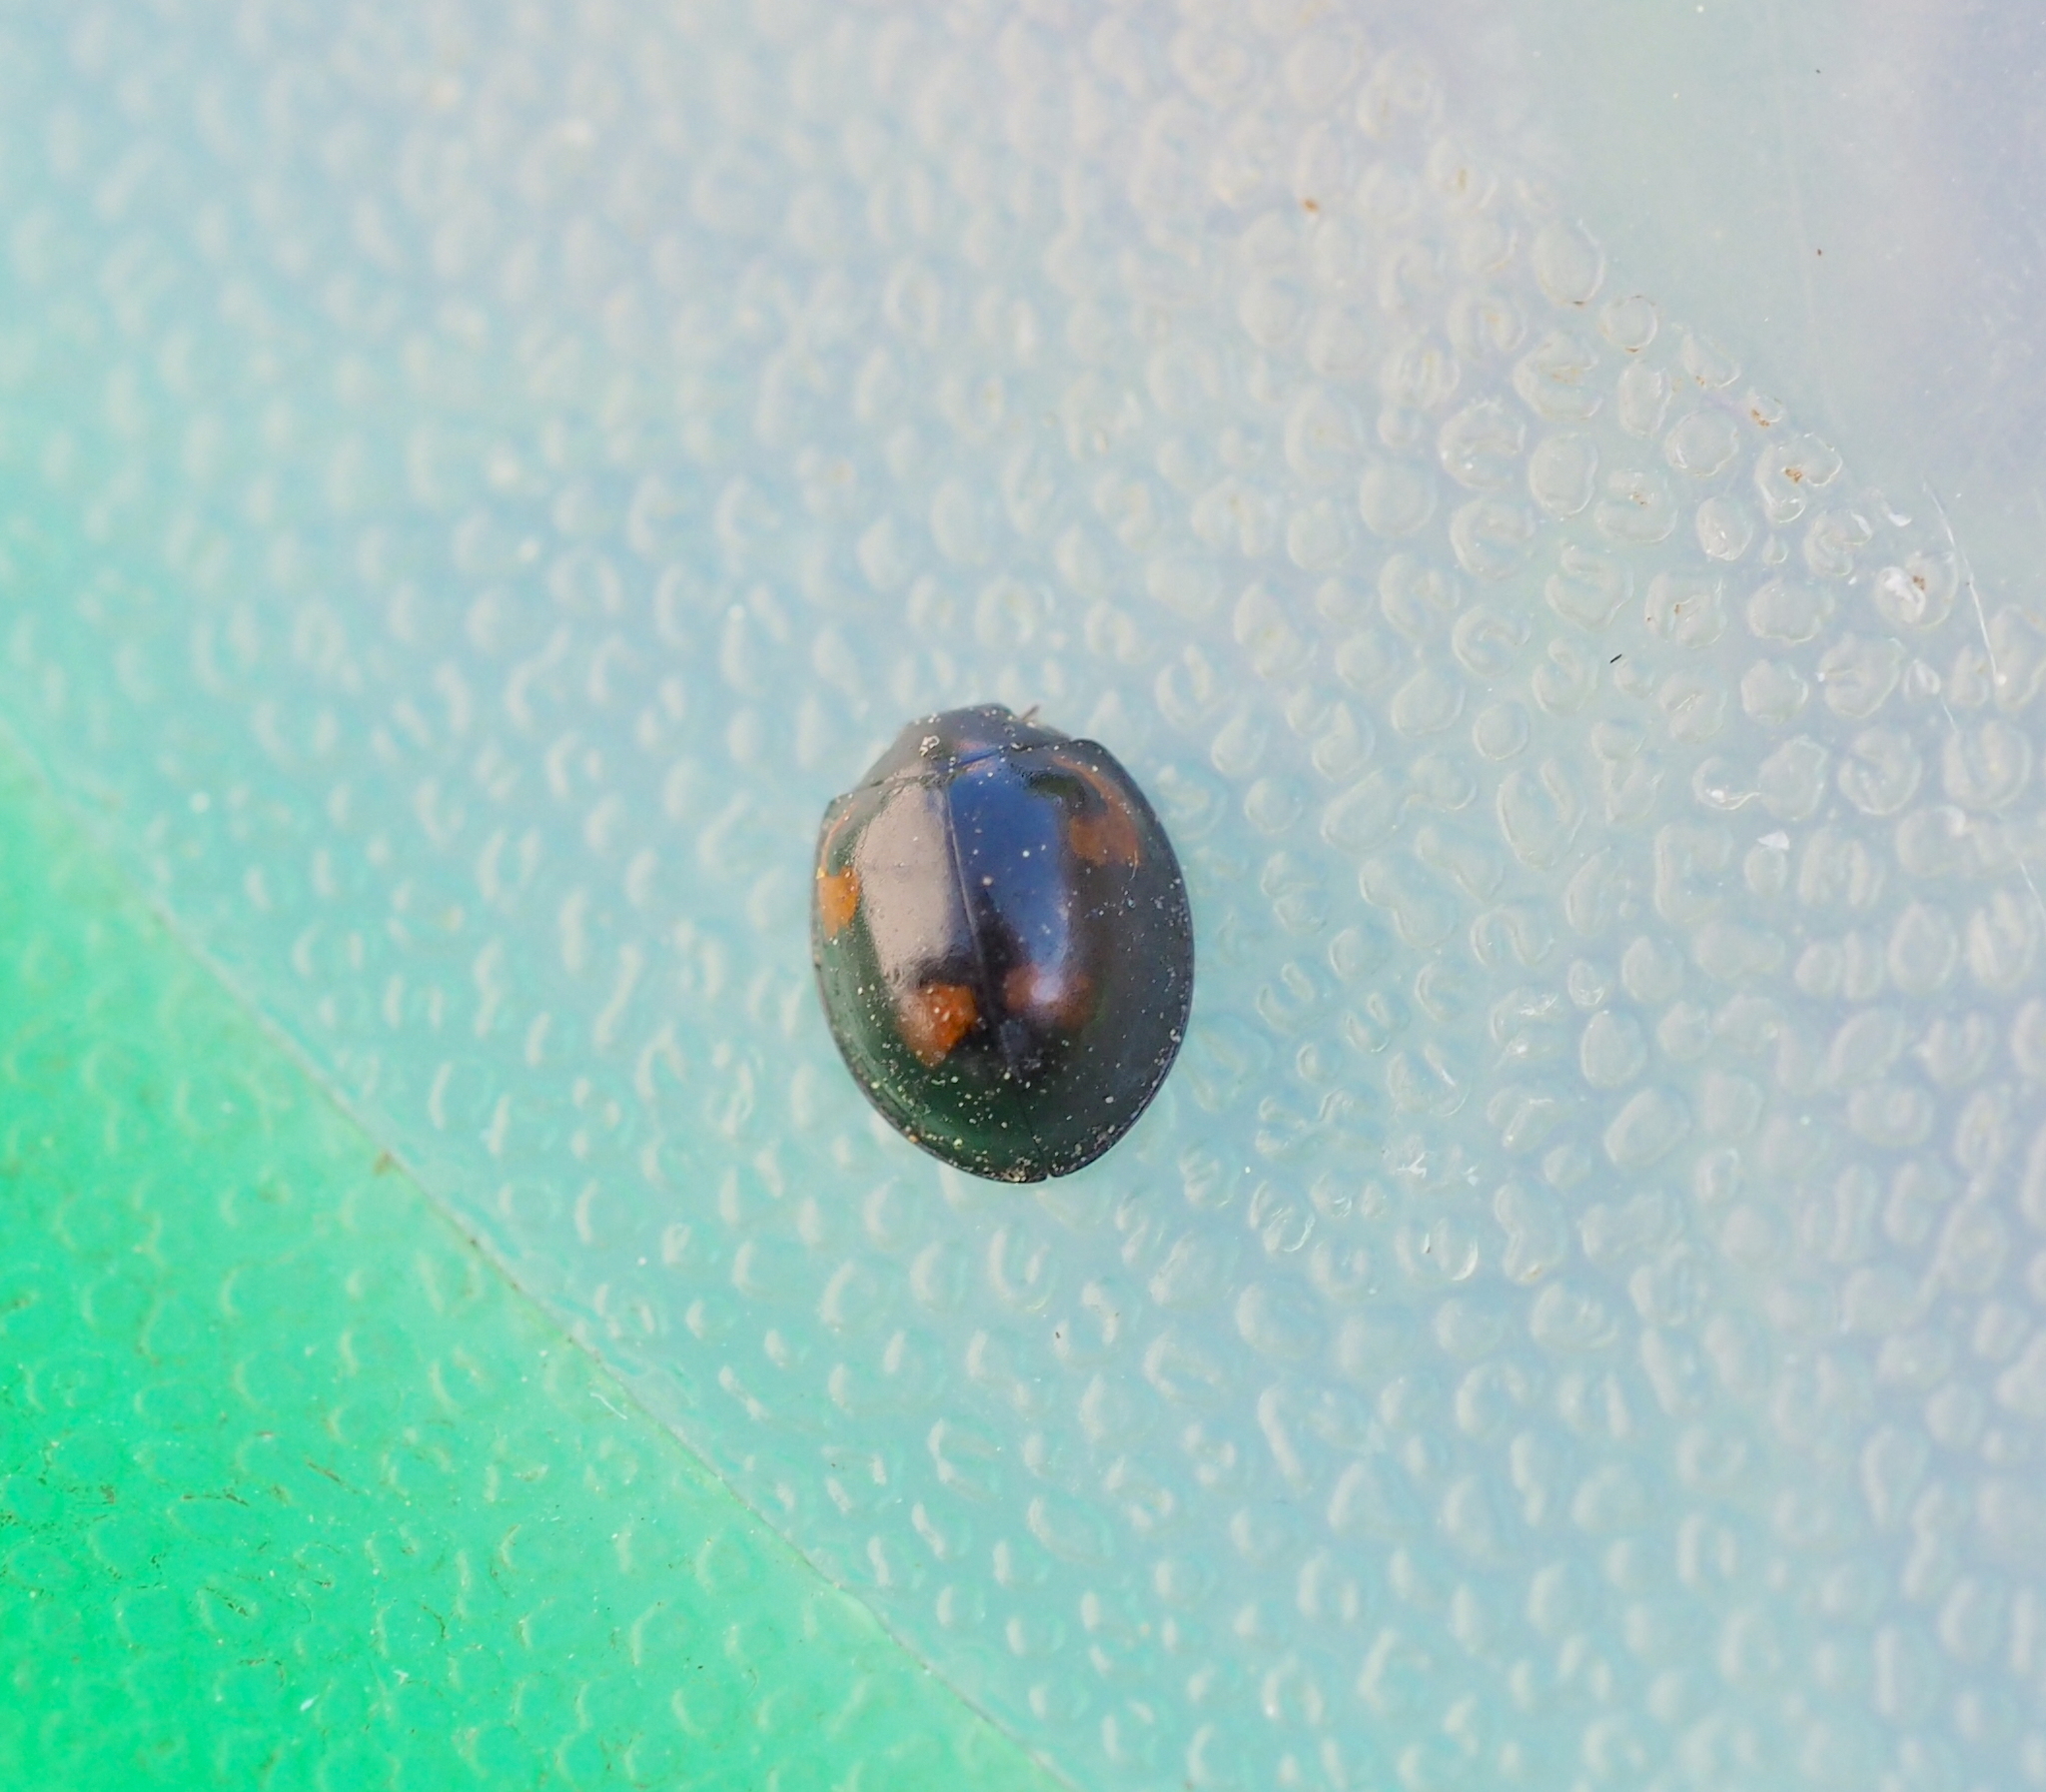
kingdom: Animalia
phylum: Arthropoda
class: Insecta
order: Coleoptera
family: Coccinellidae
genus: Brumus
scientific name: Brumus quadripustulatus
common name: Ladybird beetle
